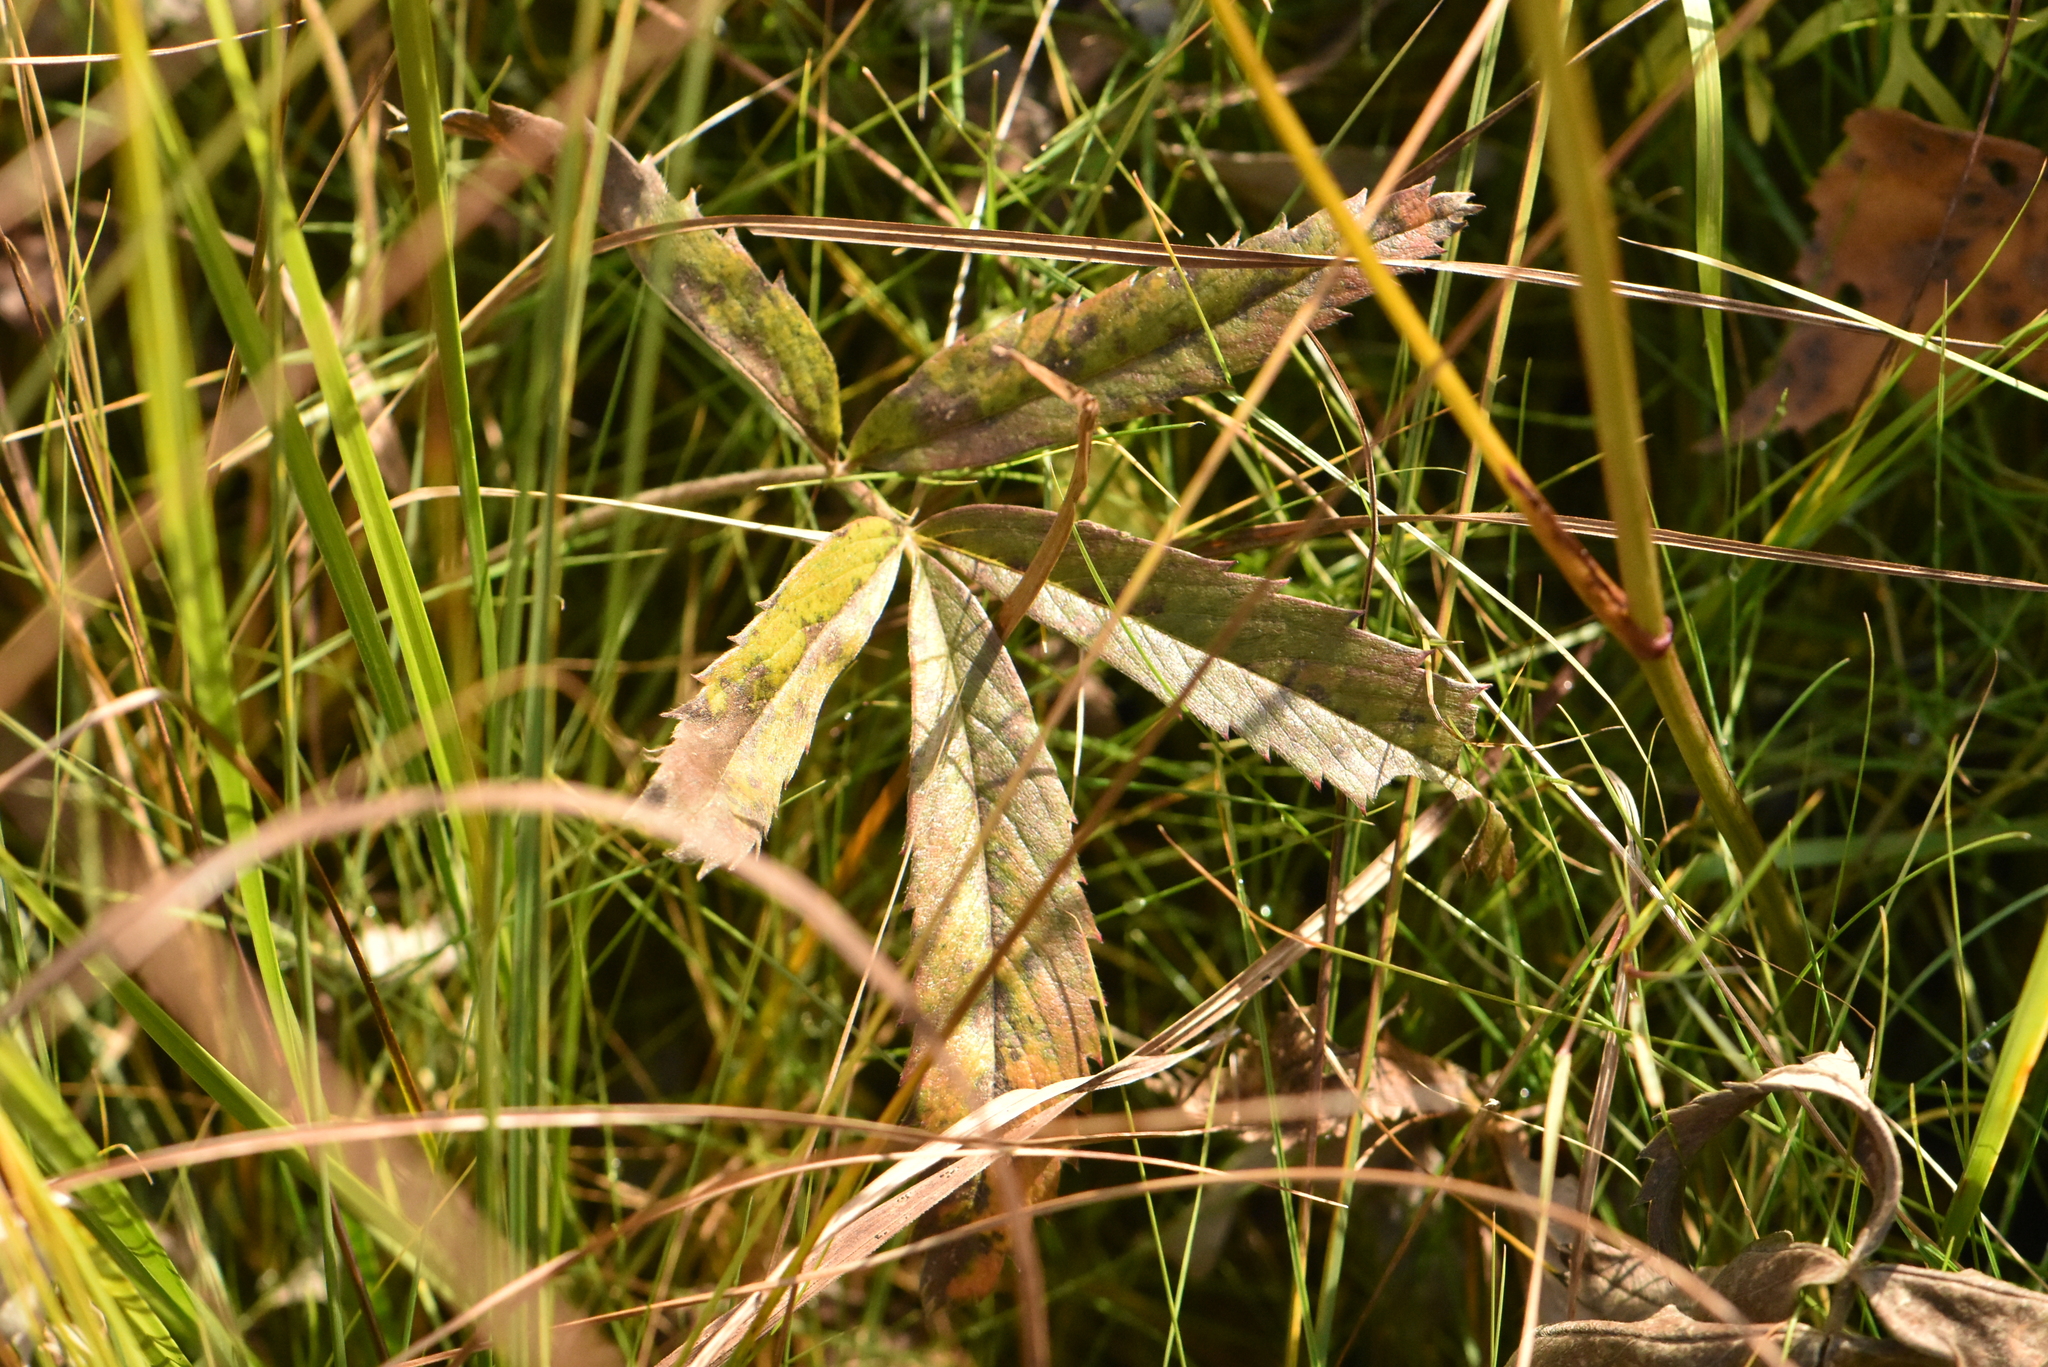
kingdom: Plantae
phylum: Tracheophyta
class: Magnoliopsida
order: Rosales
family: Rosaceae
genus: Comarum
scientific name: Comarum palustre
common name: Marsh cinquefoil
